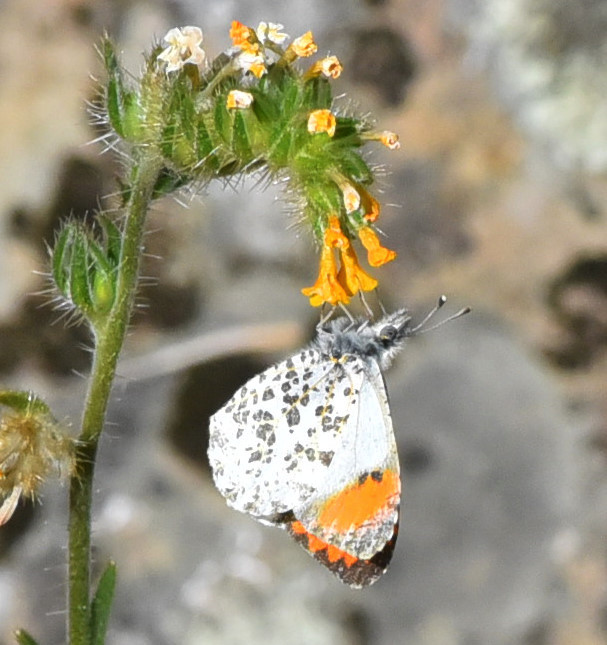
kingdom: Animalia
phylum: Arthropoda
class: Insecta
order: Lepidoptera
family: Pieridae
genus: Anthocharis
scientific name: Anthocharis sara
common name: Sara's orangetip
